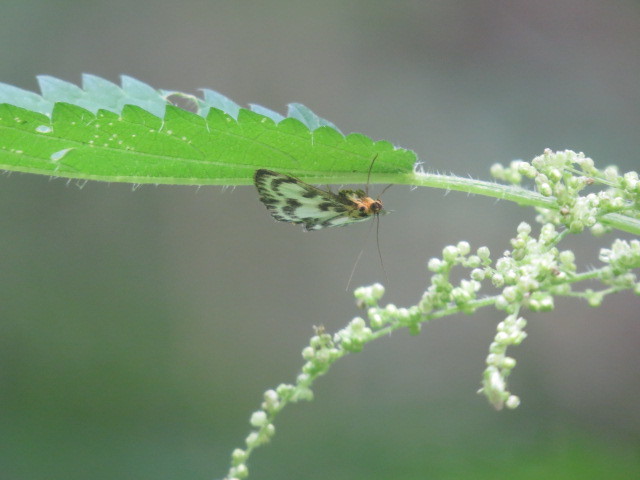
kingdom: Animalia
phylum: Arthropoda
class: Insecta
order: Lepidoptera
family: Crambidae
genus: Anania
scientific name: Anania hortulata
